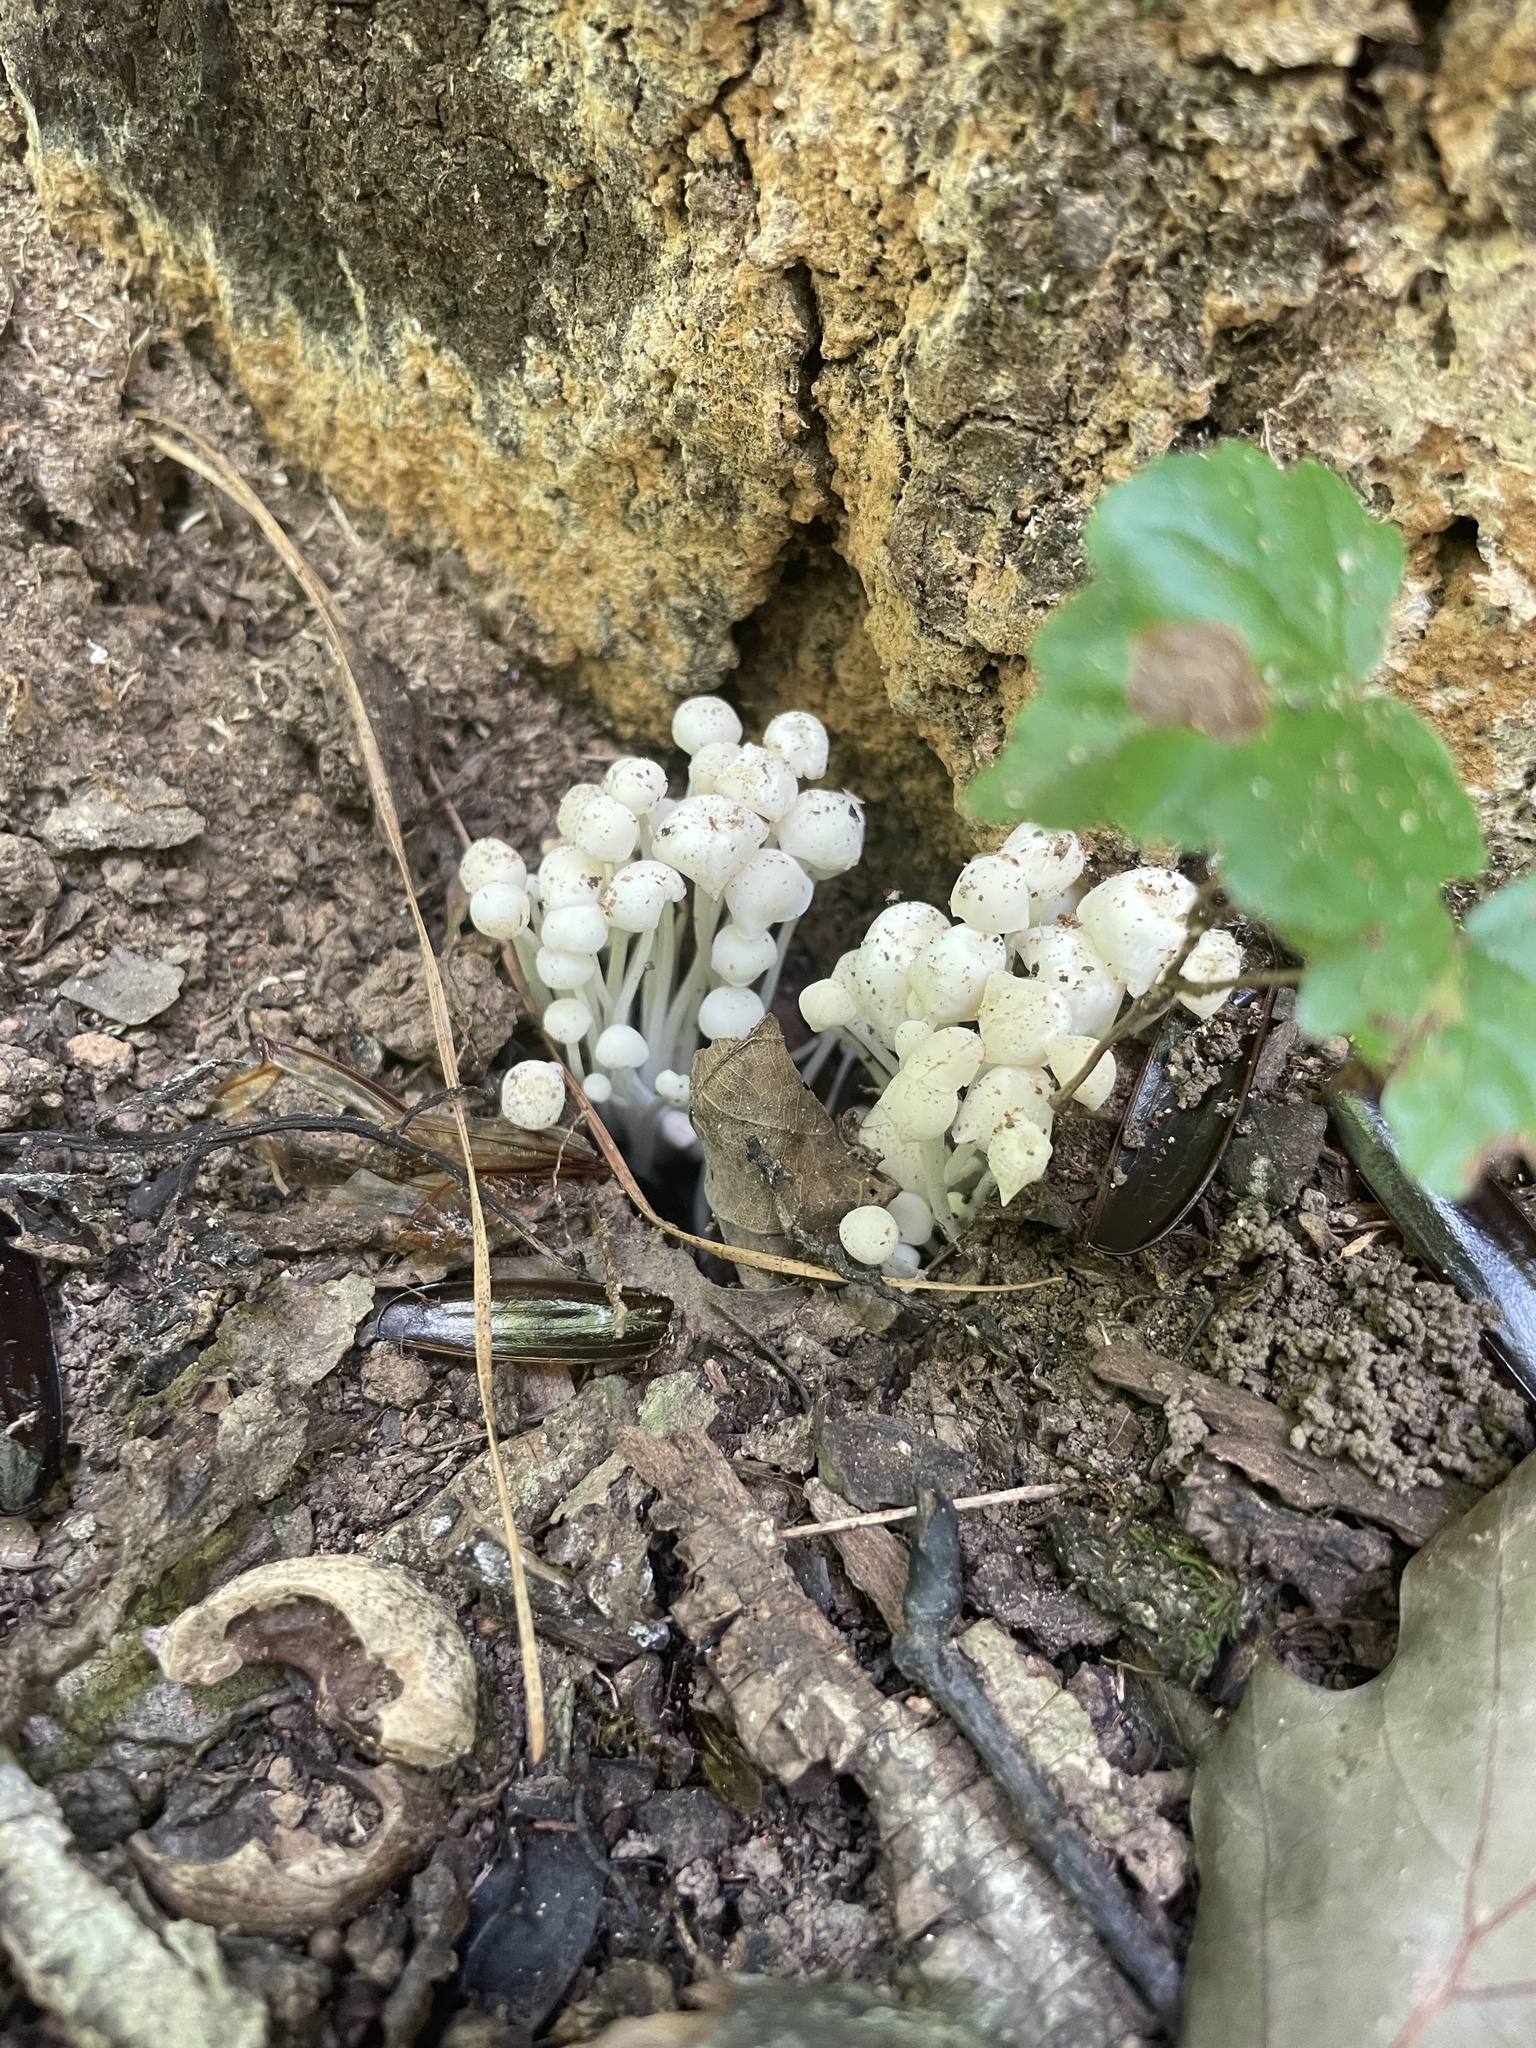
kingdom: Fungi
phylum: Basidiomycota
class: Agaricomycetes
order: Agaricales
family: Psathyrellaceae
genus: Coprinellus
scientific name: Coprinellus disseminatus
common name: Fairies' bonnets
